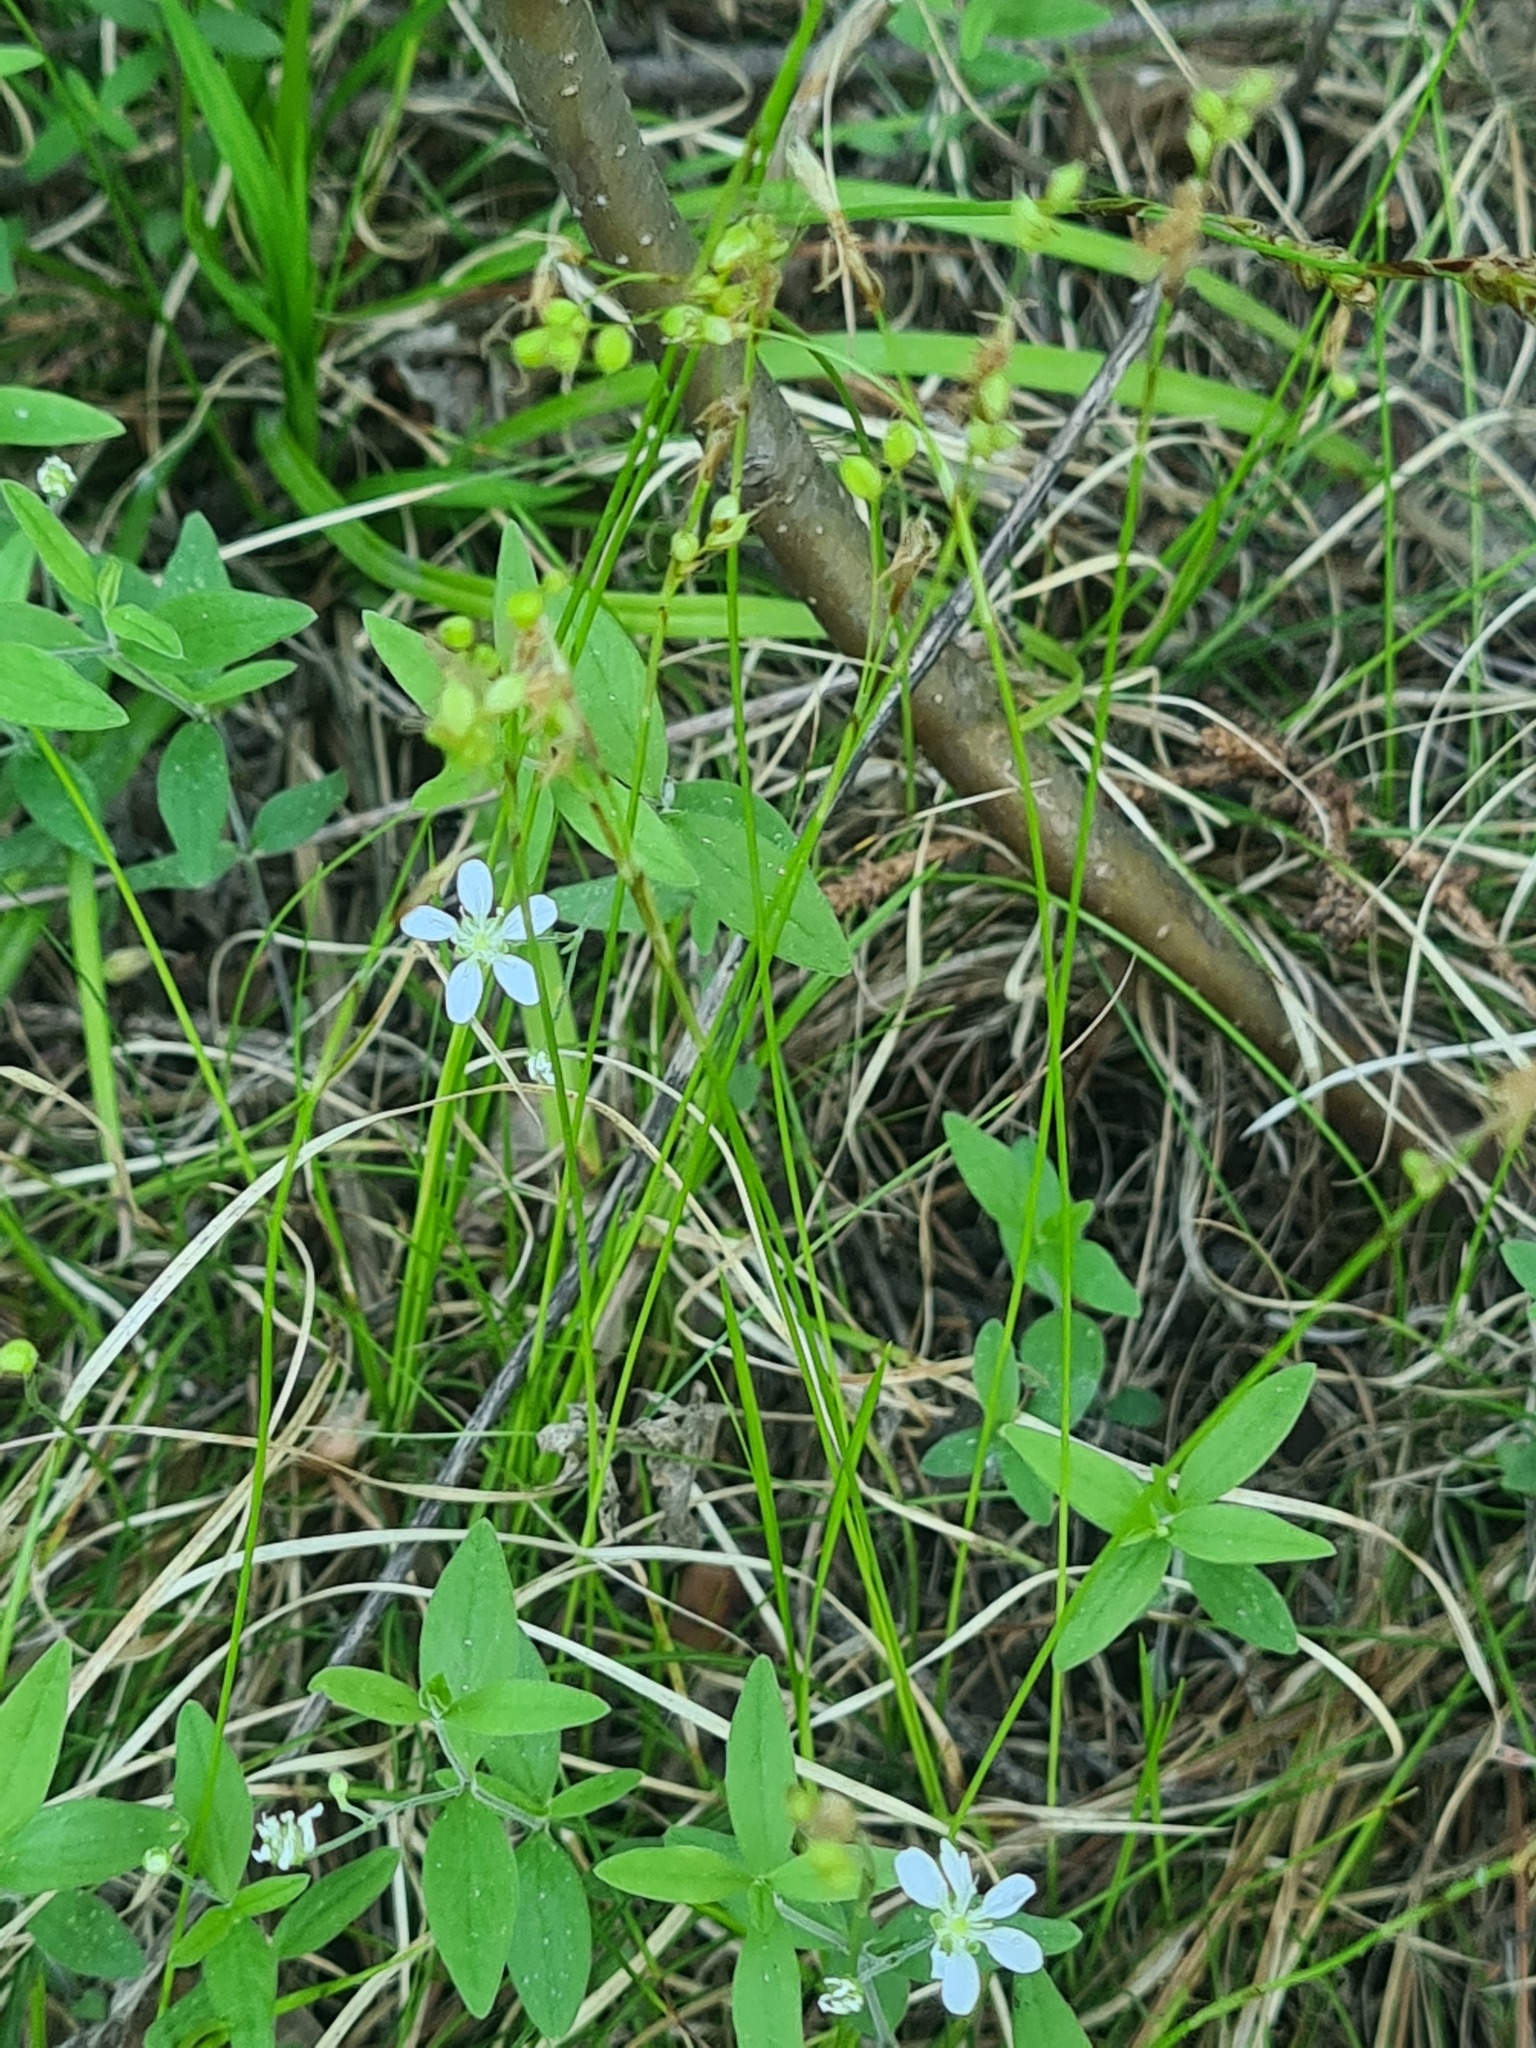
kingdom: Plantae
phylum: Tracheophyta
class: Magnoliopsida
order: Caryophyllales
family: Caryophyllaceae
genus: Moehringia
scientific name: Moehringia lateriflora
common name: Blunt-leaved sandwort
